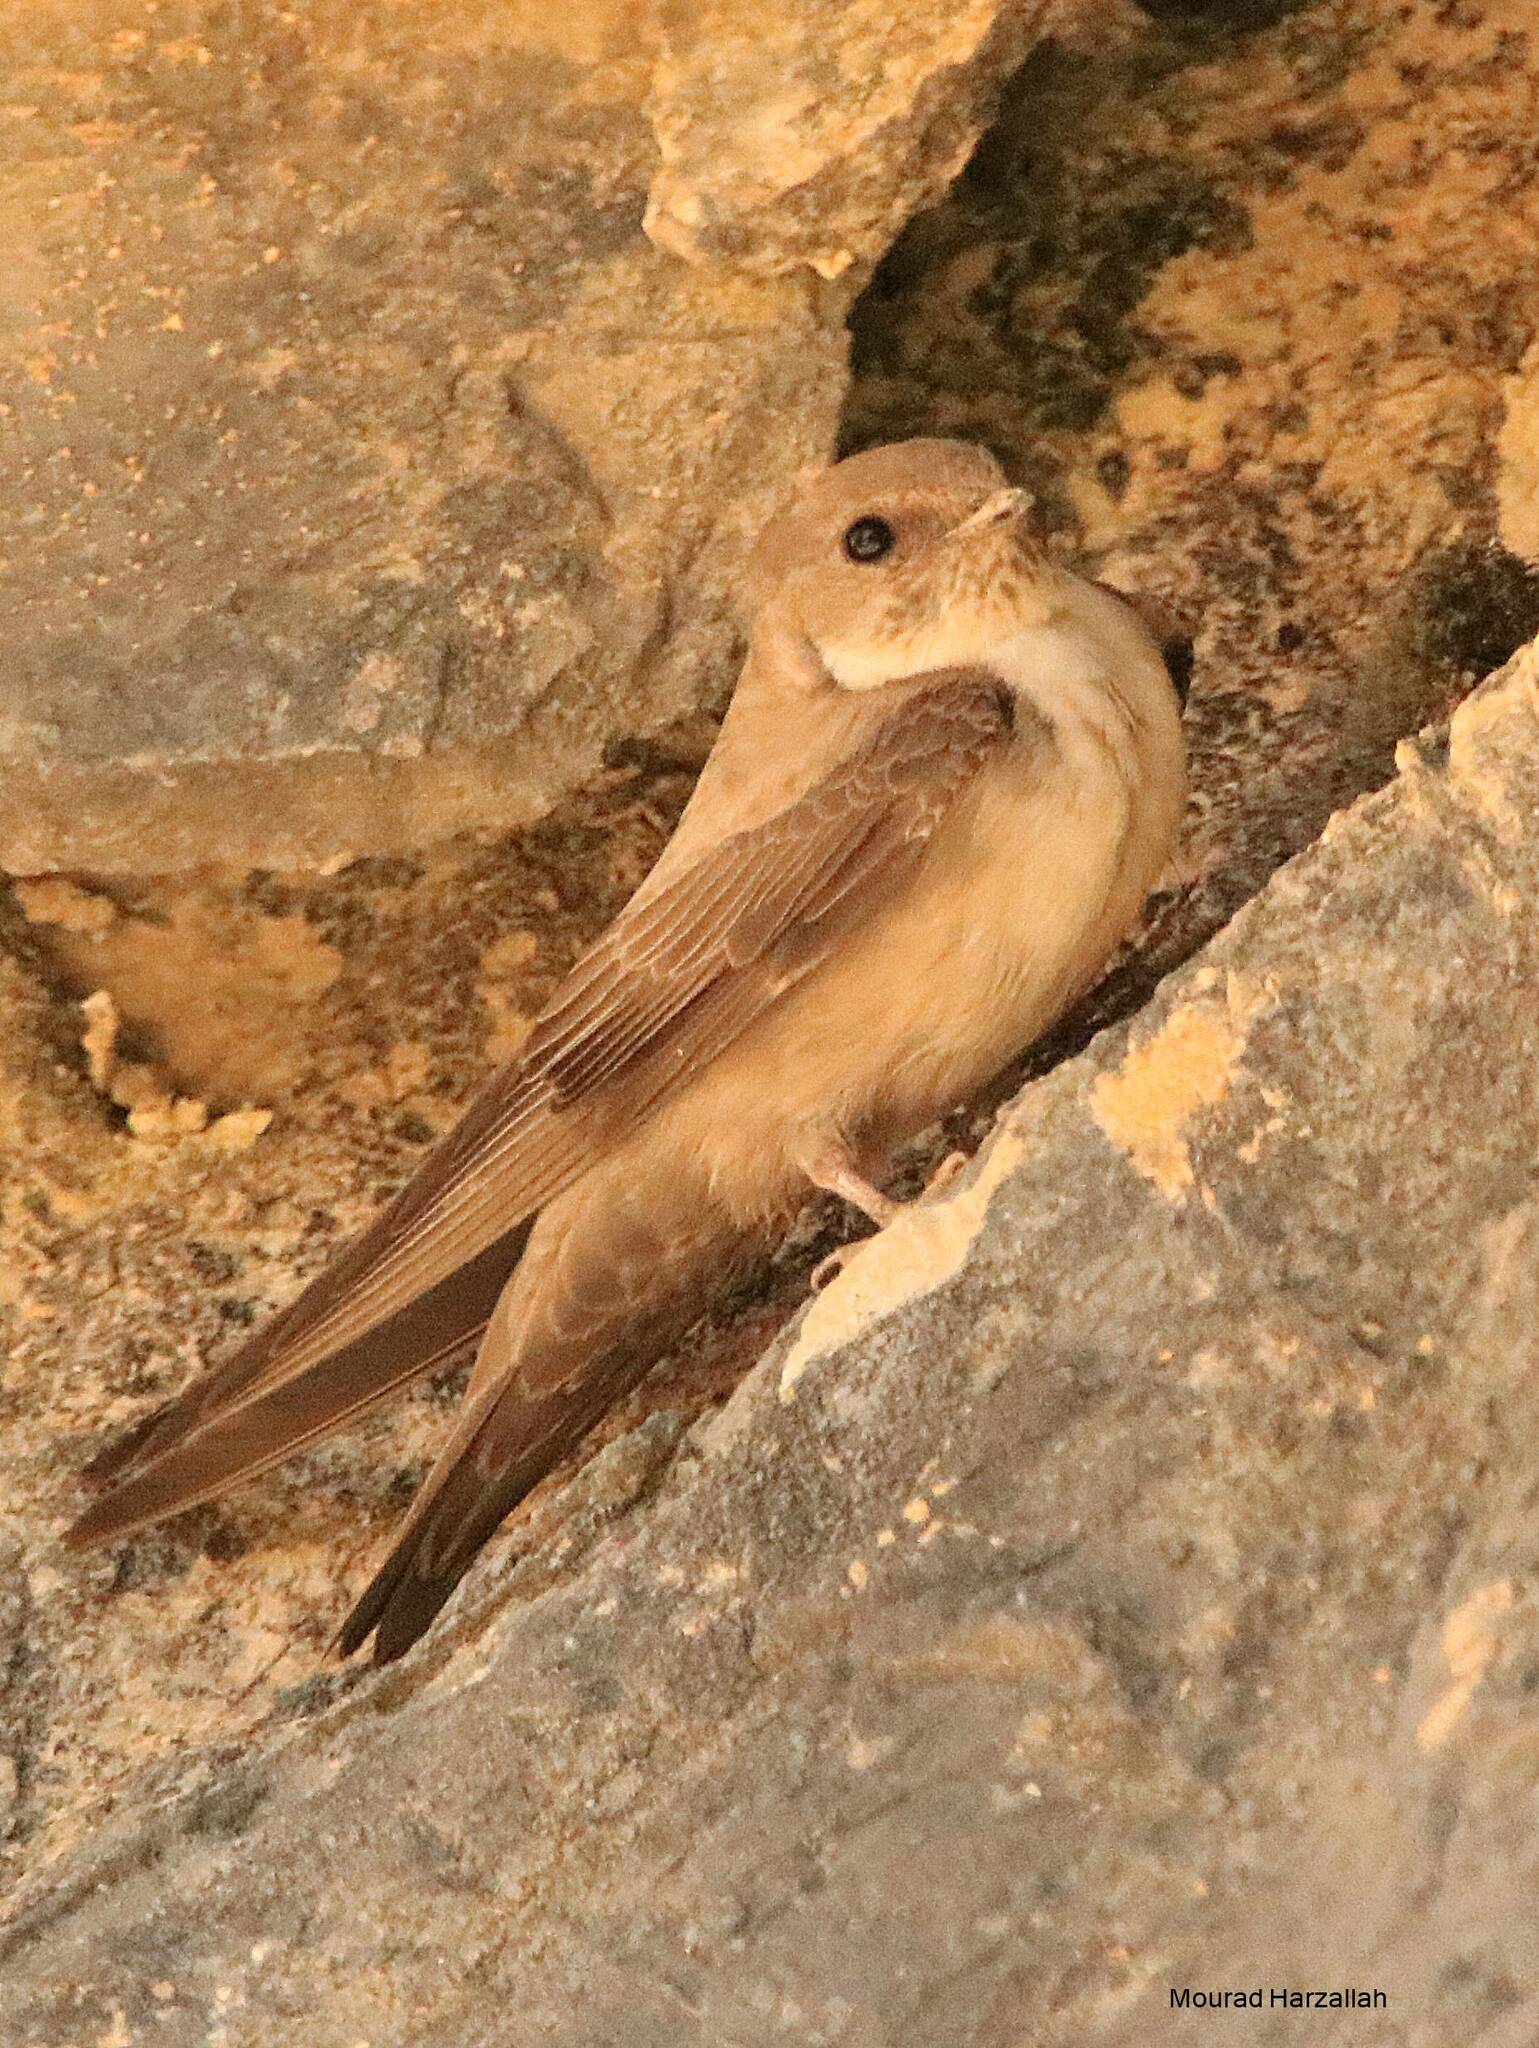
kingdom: Animalia
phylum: Chordata
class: Aves
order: Passeriformes
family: Hirundinidae
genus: Ptyonoprogne
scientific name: Ptyonoprogne rupestris
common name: Eurasian crag martin
